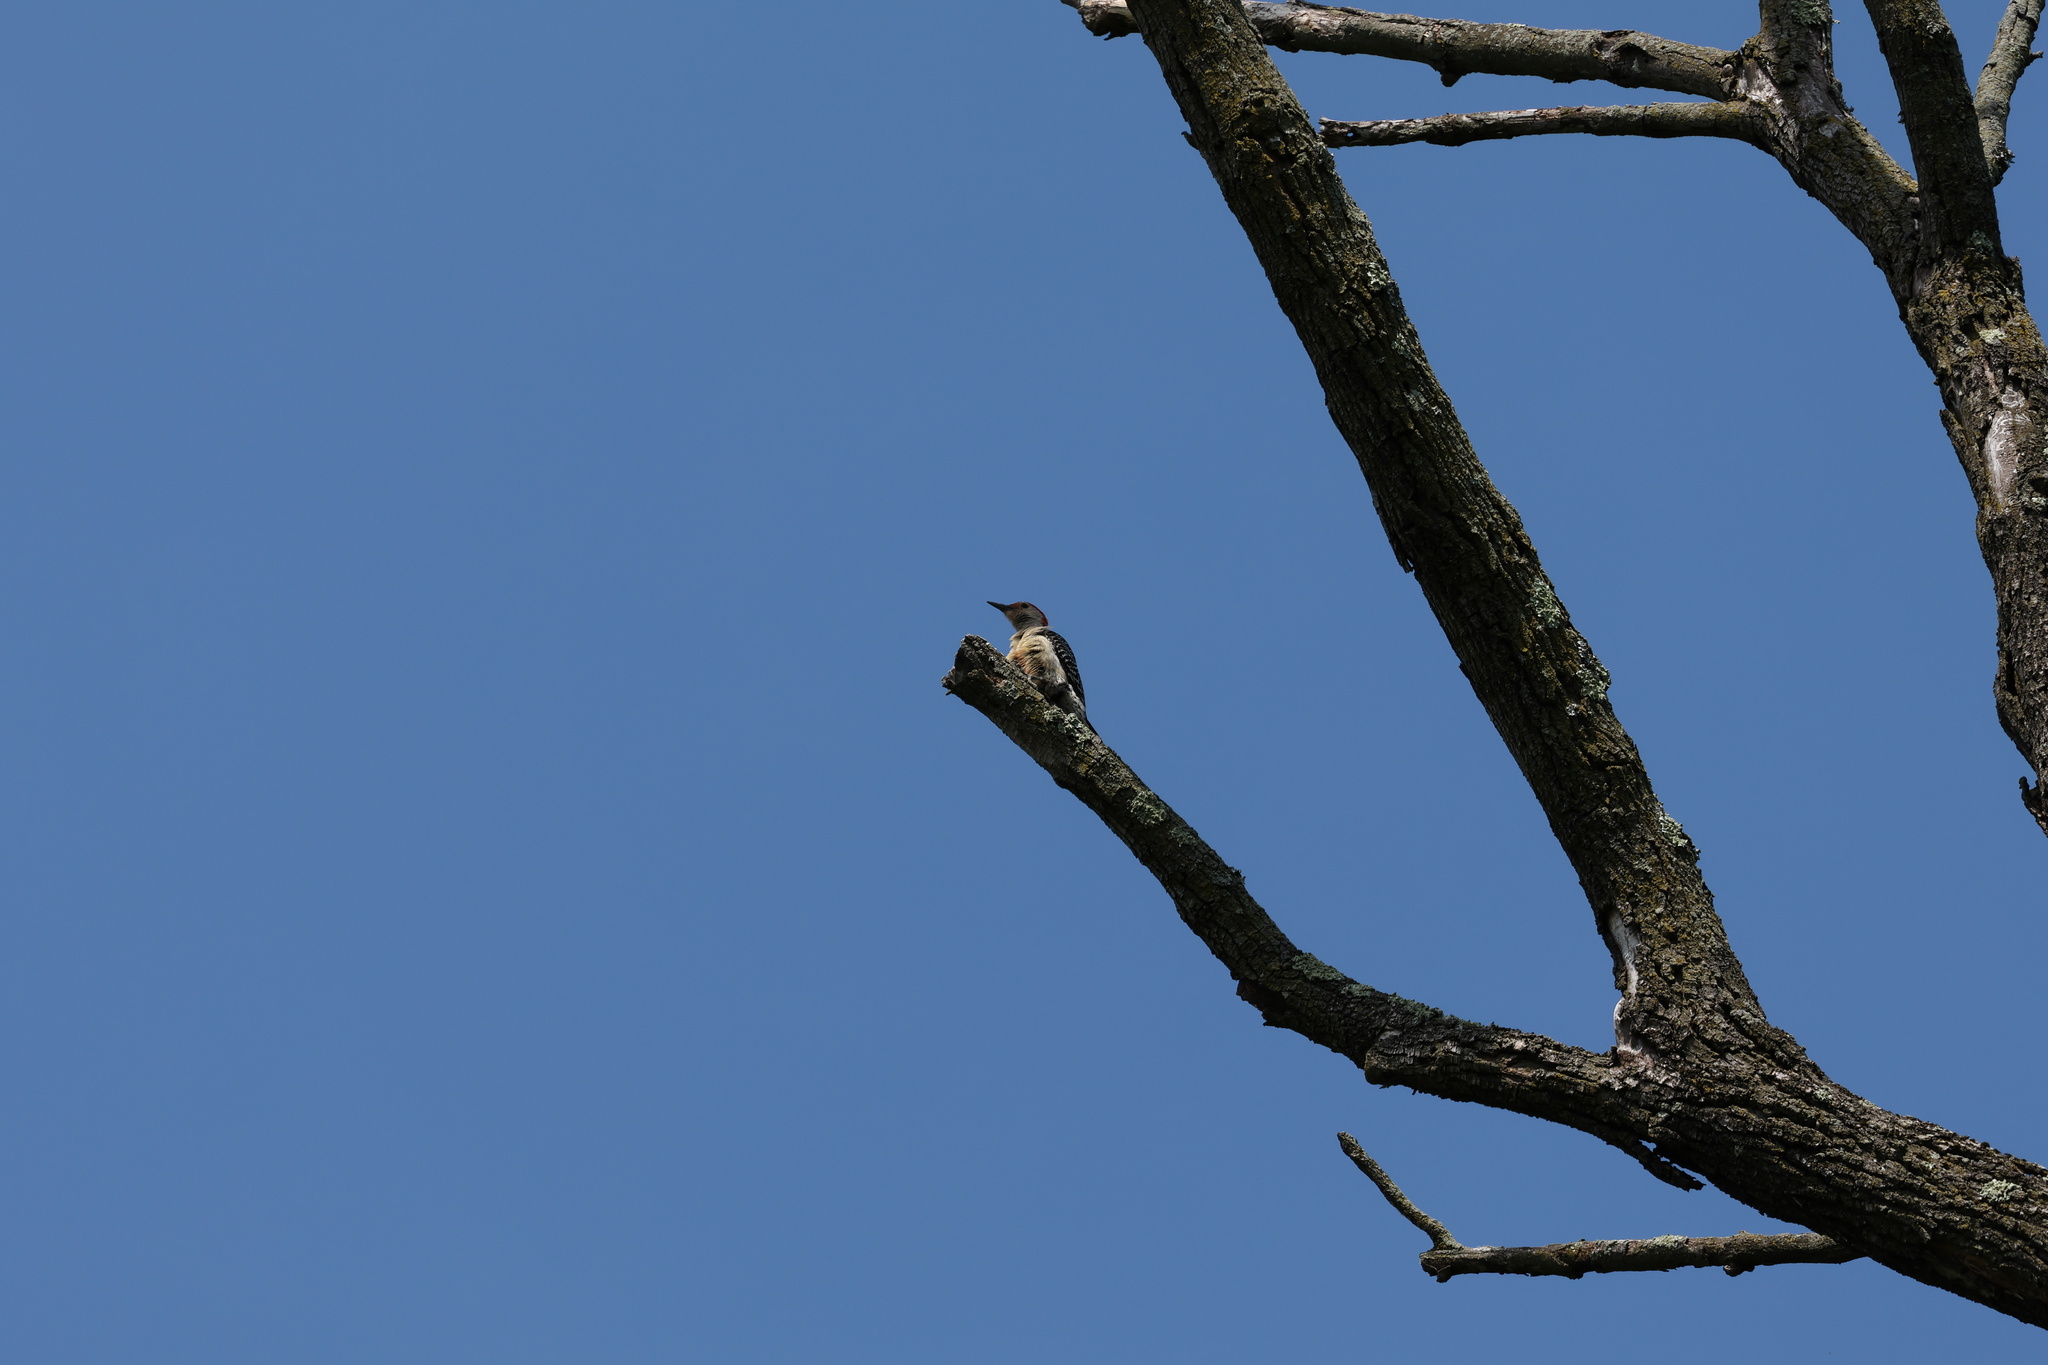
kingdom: Animalia
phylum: Chordata
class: Aves
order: Piciformes
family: Picidae
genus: Melanerpes
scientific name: Melanerpes carolinus
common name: Red-bellied woodpecker
